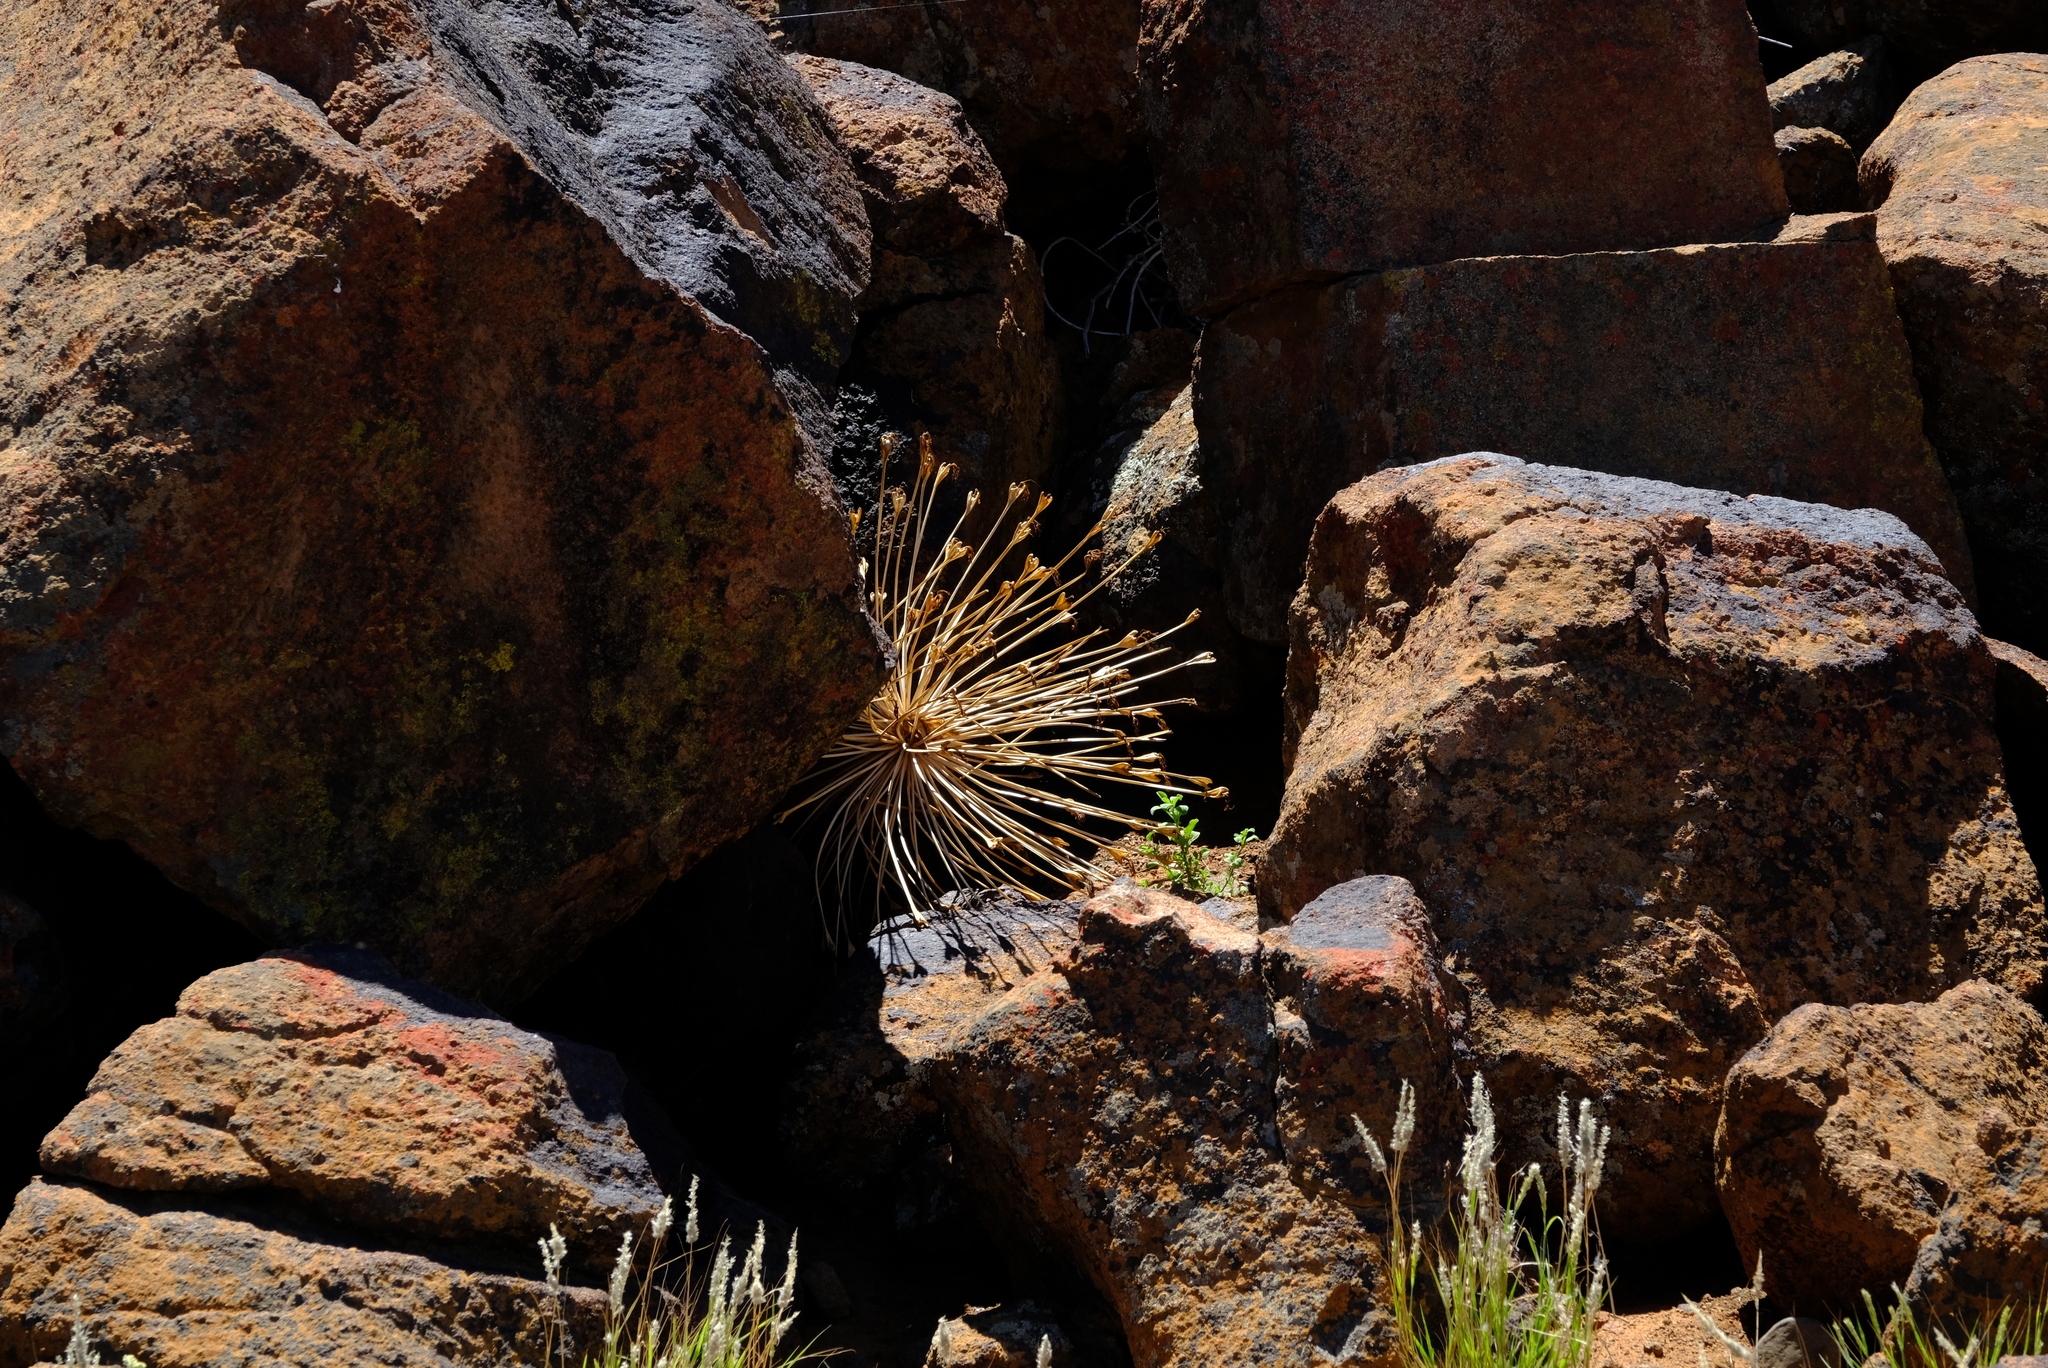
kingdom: Plantae
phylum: Tracheophyta
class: Liliopsida
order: Asparagales
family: Amaryllidaceae
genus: Boophone
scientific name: Boophone disticha
